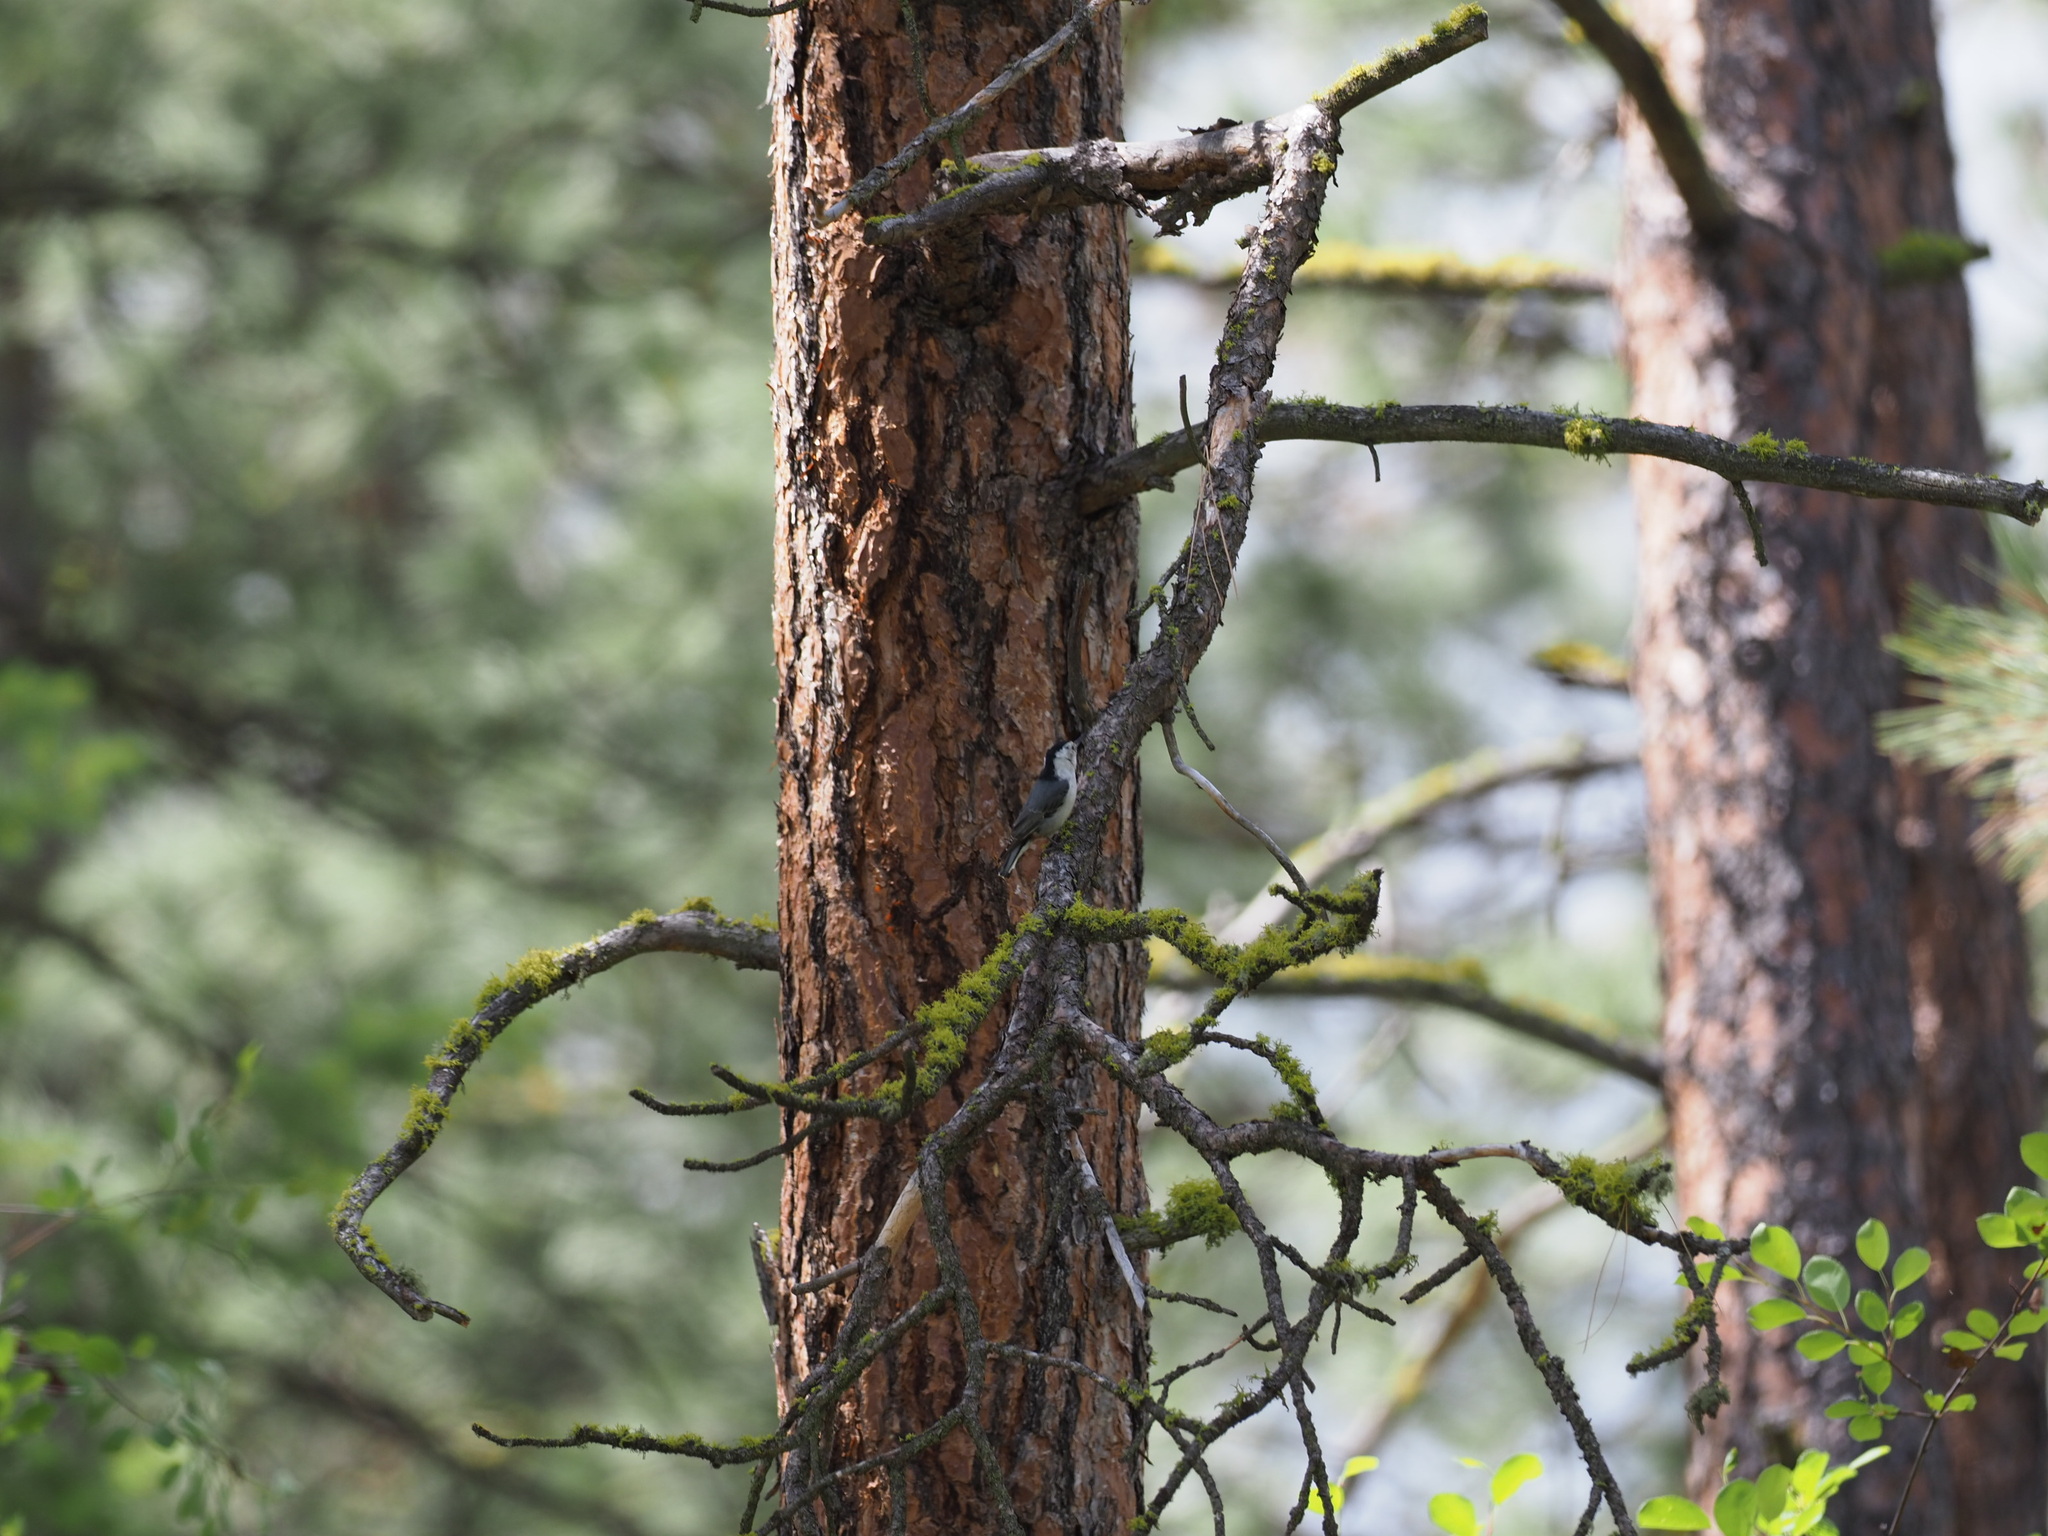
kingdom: Animalia
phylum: Chordata
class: Aves
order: Passeriformes
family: Sittidae
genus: Sitta
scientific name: Sitta carolinensis
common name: White-breasted nuthatch
